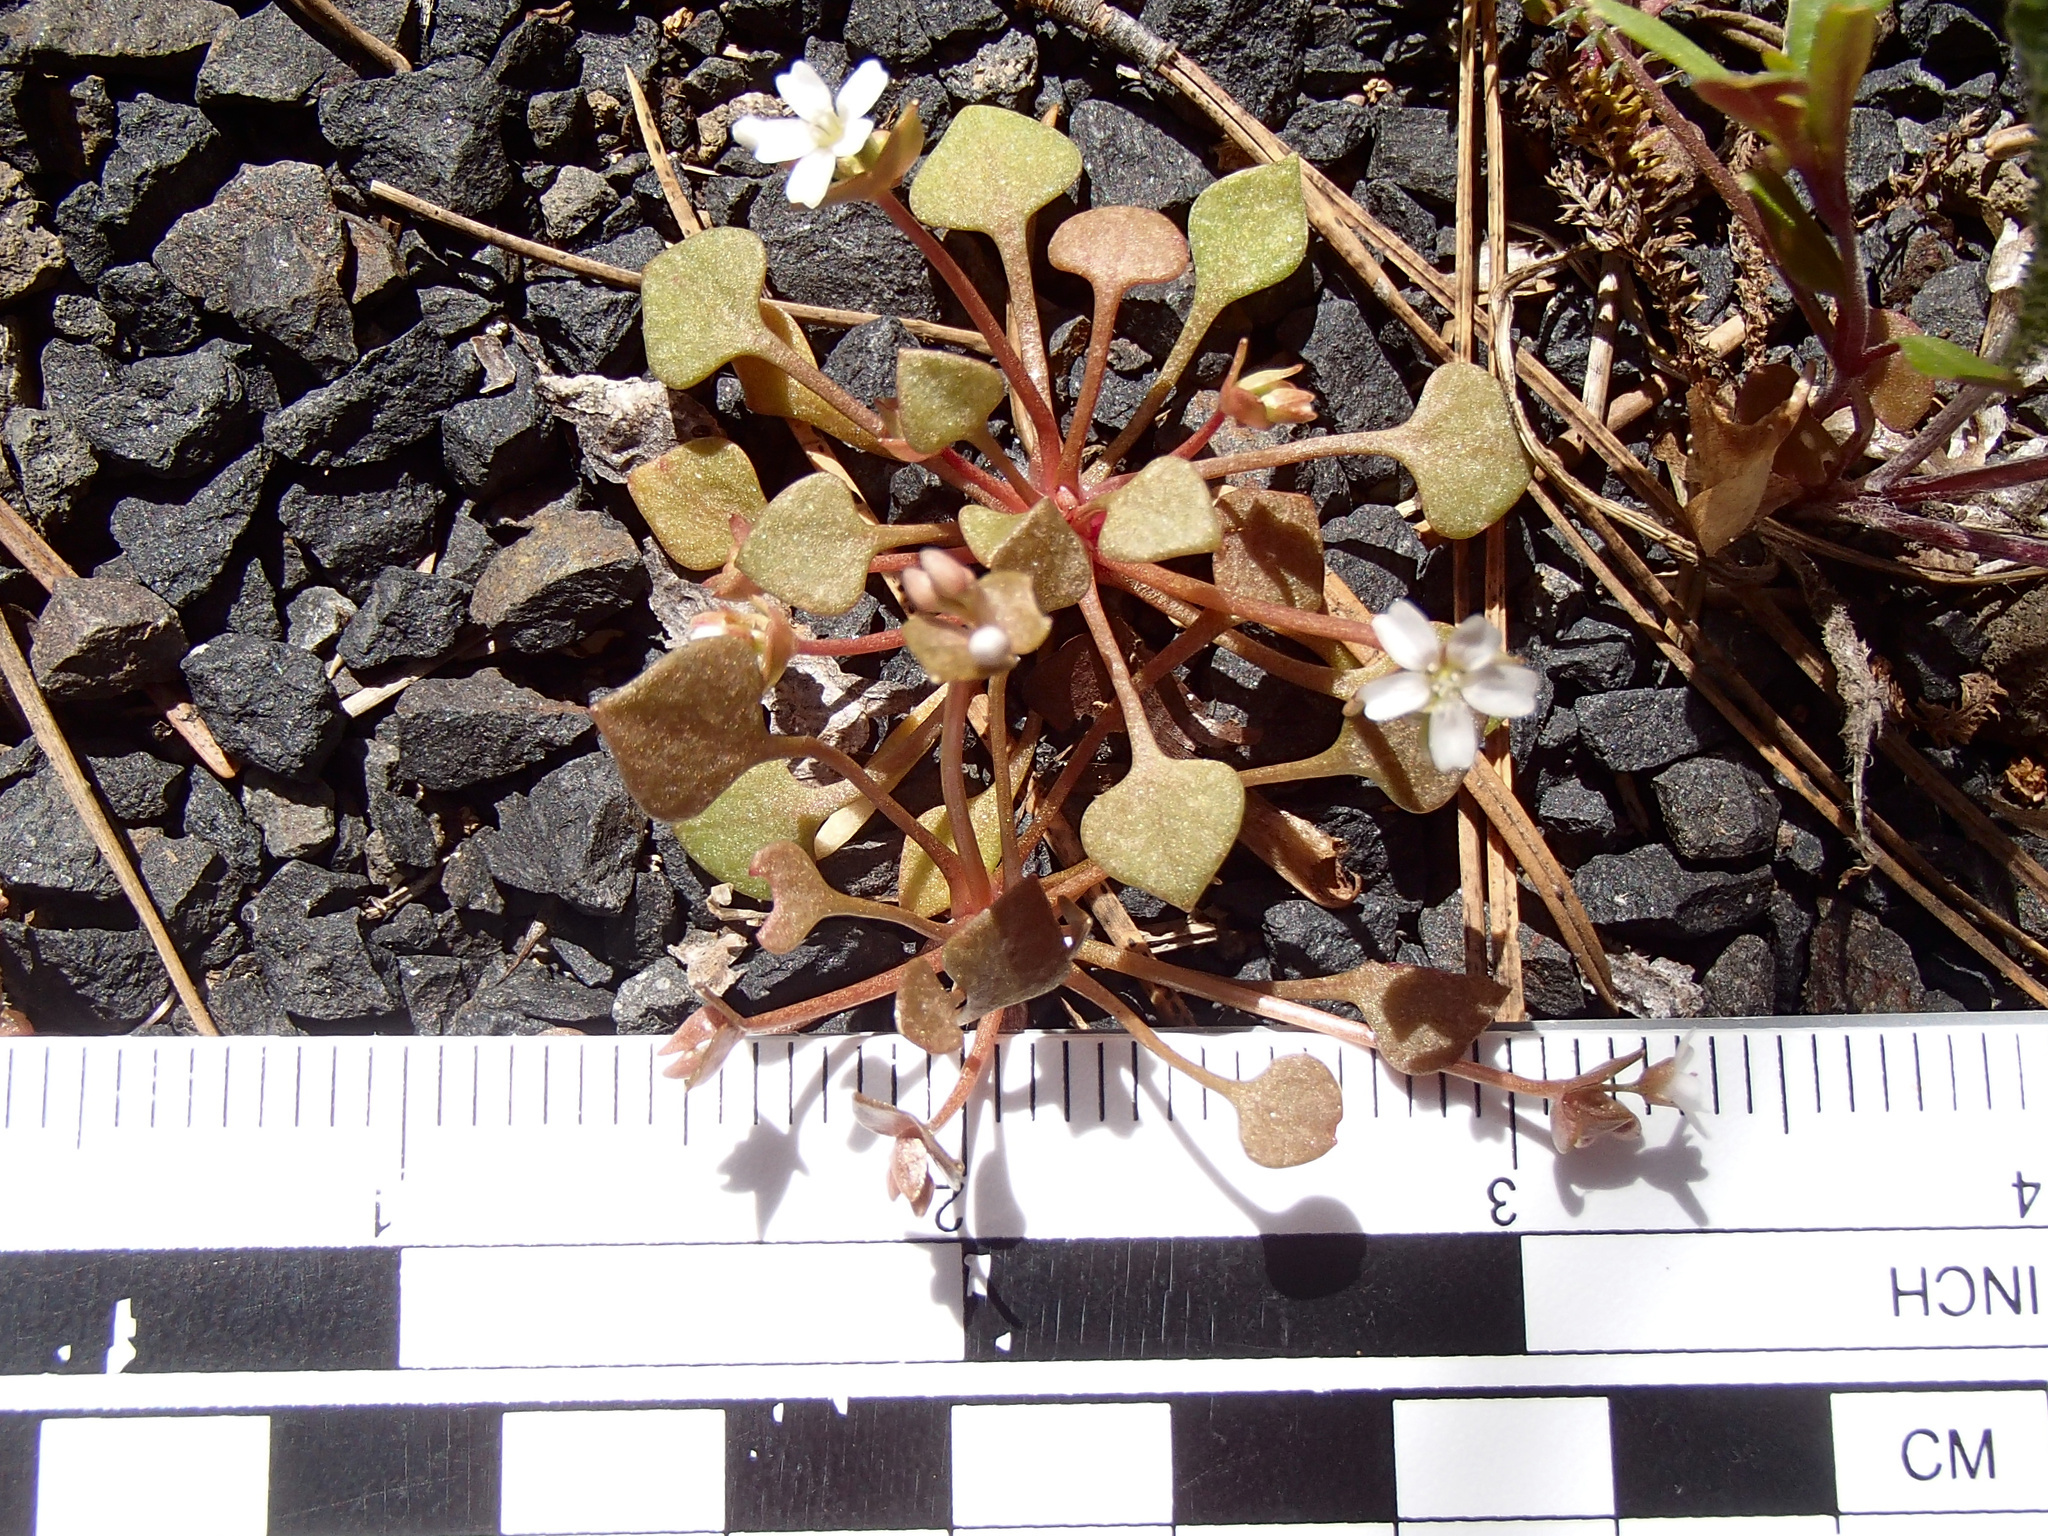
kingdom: Plantae
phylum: Tracheophyta
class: Magnoliopsida
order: Caryophyllales
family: Montiaceae
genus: Claytonia
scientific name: Claytonia rubra
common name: Erubescent miner's-lettuce
